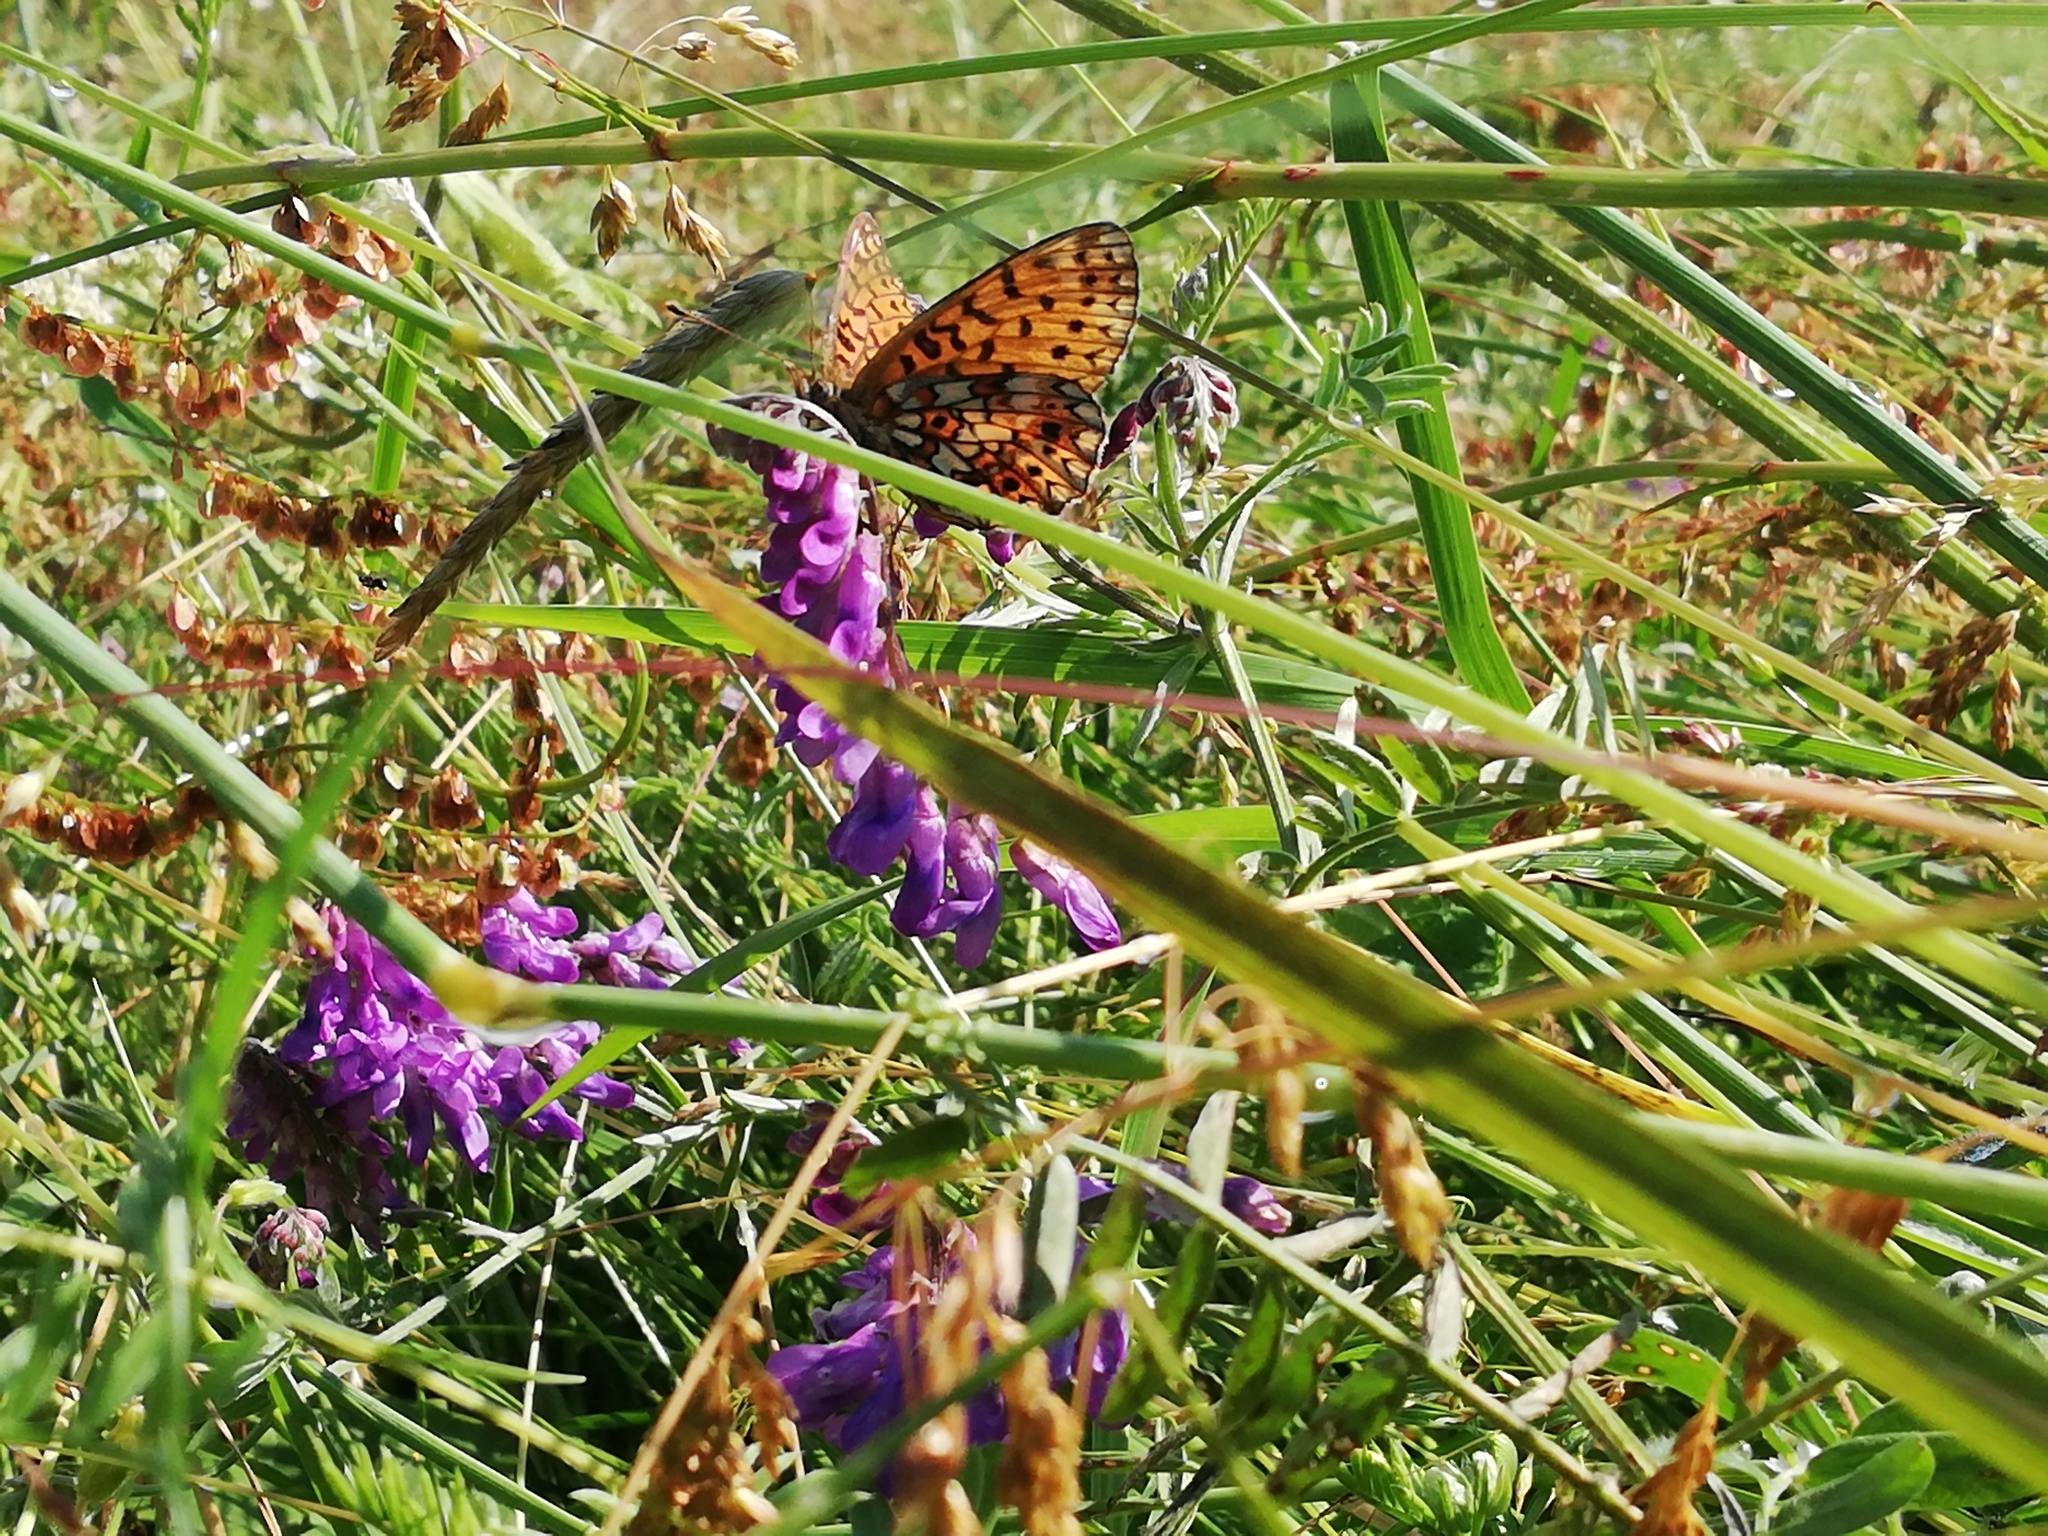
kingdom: Animalia
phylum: Arthropoda
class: Insecta
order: Lepidoptera
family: Nymphalidae
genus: Boloria
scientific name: Boloria selene
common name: Small pearl-bordered fritillary
